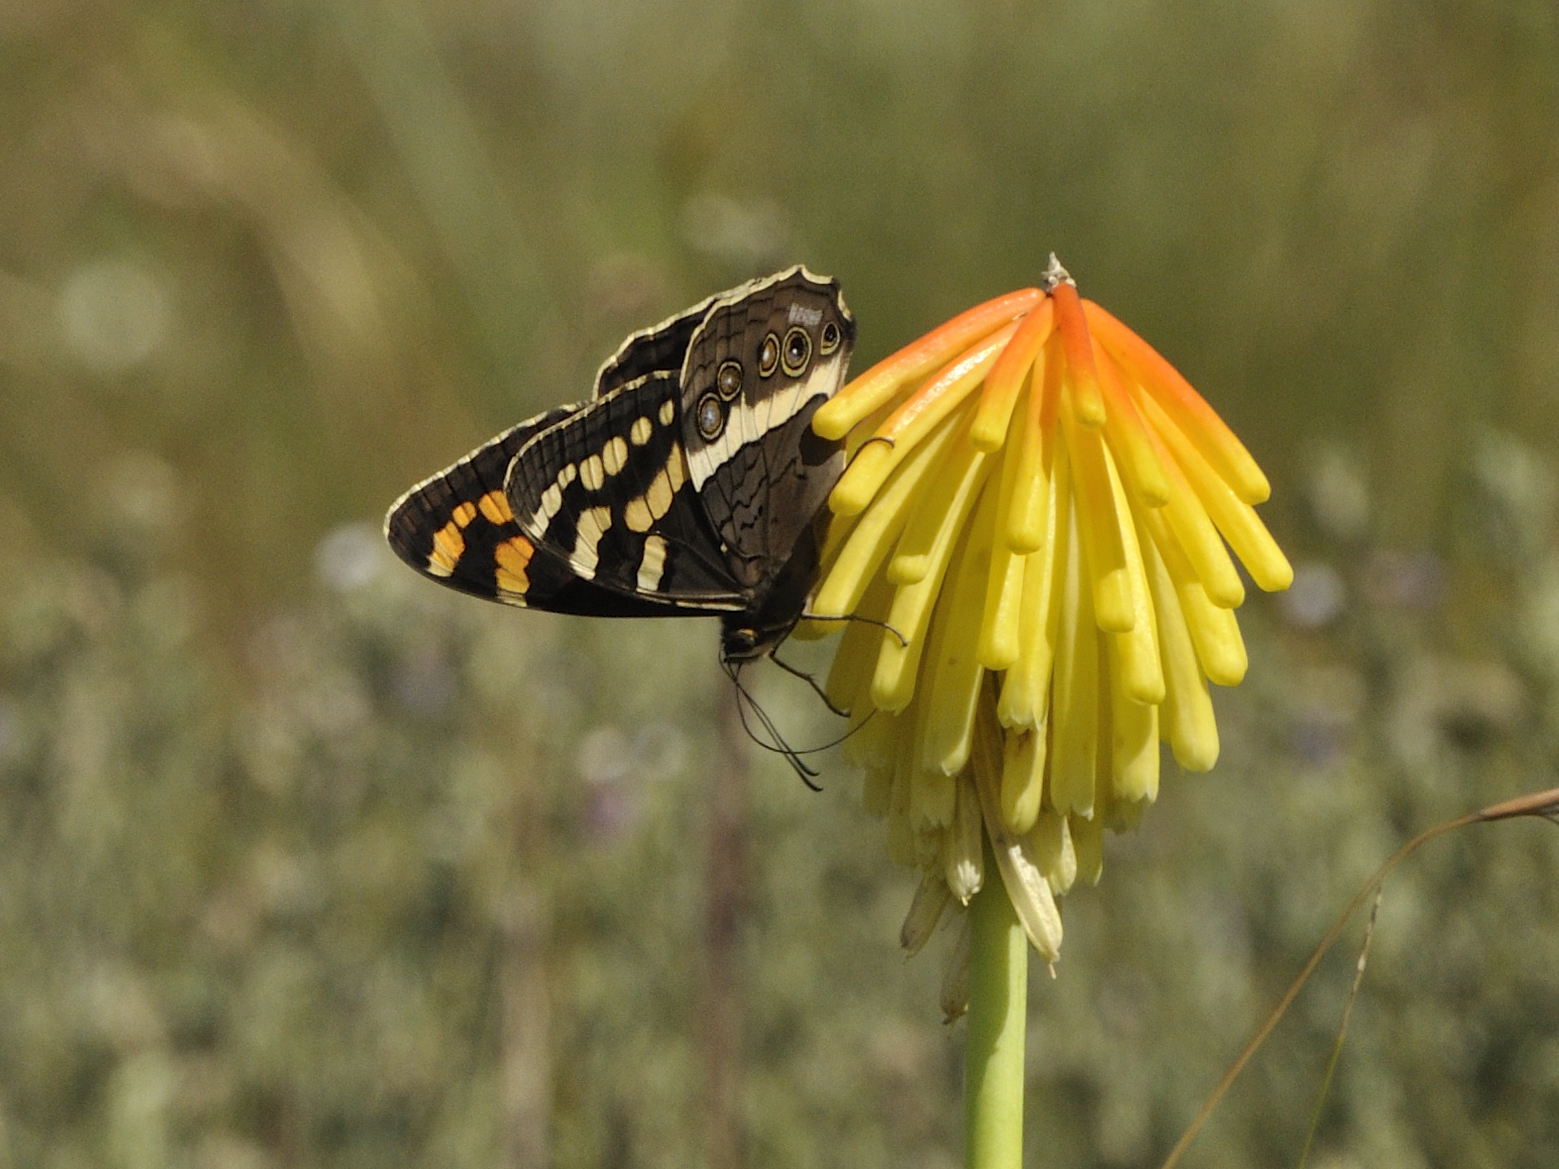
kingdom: Animalia
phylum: Arthropoda
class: Insecta
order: Lepidoptera
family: Nymphalidae
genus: Meneris
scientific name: Meneris Aeropetes tulbaghia
